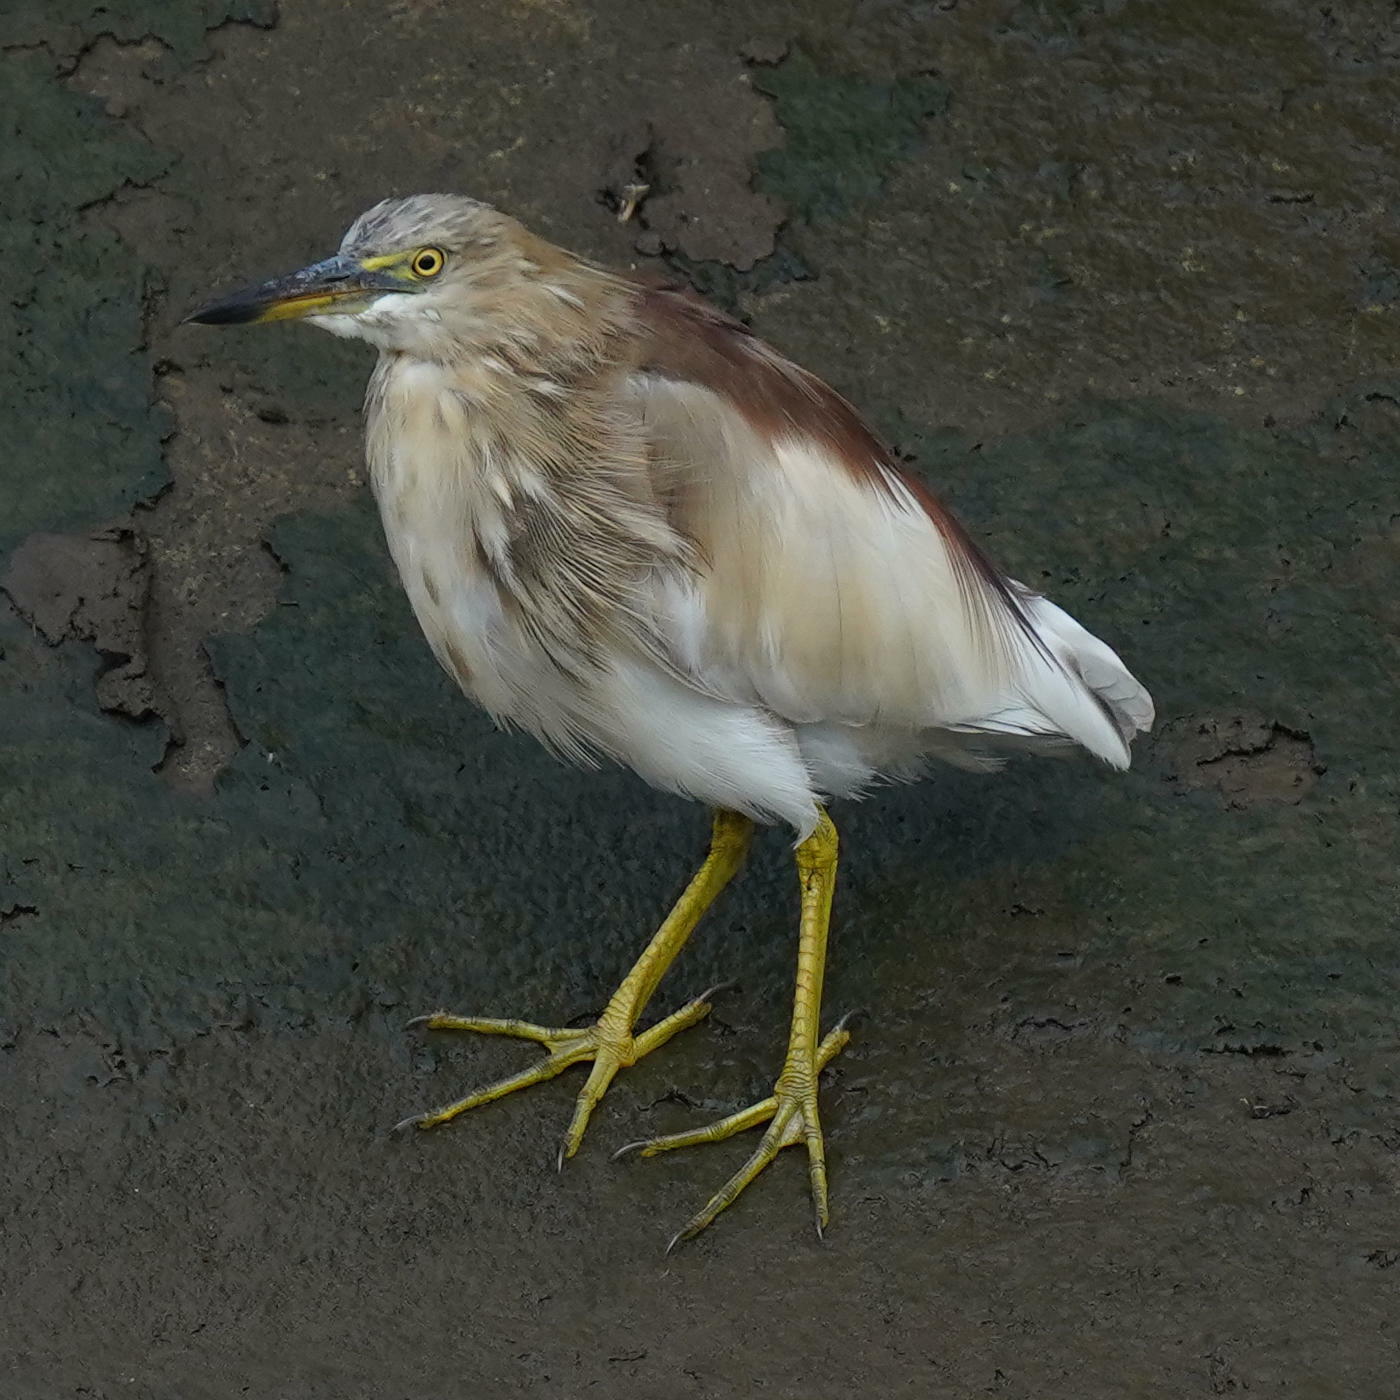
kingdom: Animalia
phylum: Chordata
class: Aves
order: Pelecaniformes
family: Ardeidae
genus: Ardeola
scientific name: Ardeola grayii
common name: Indian pond heron
